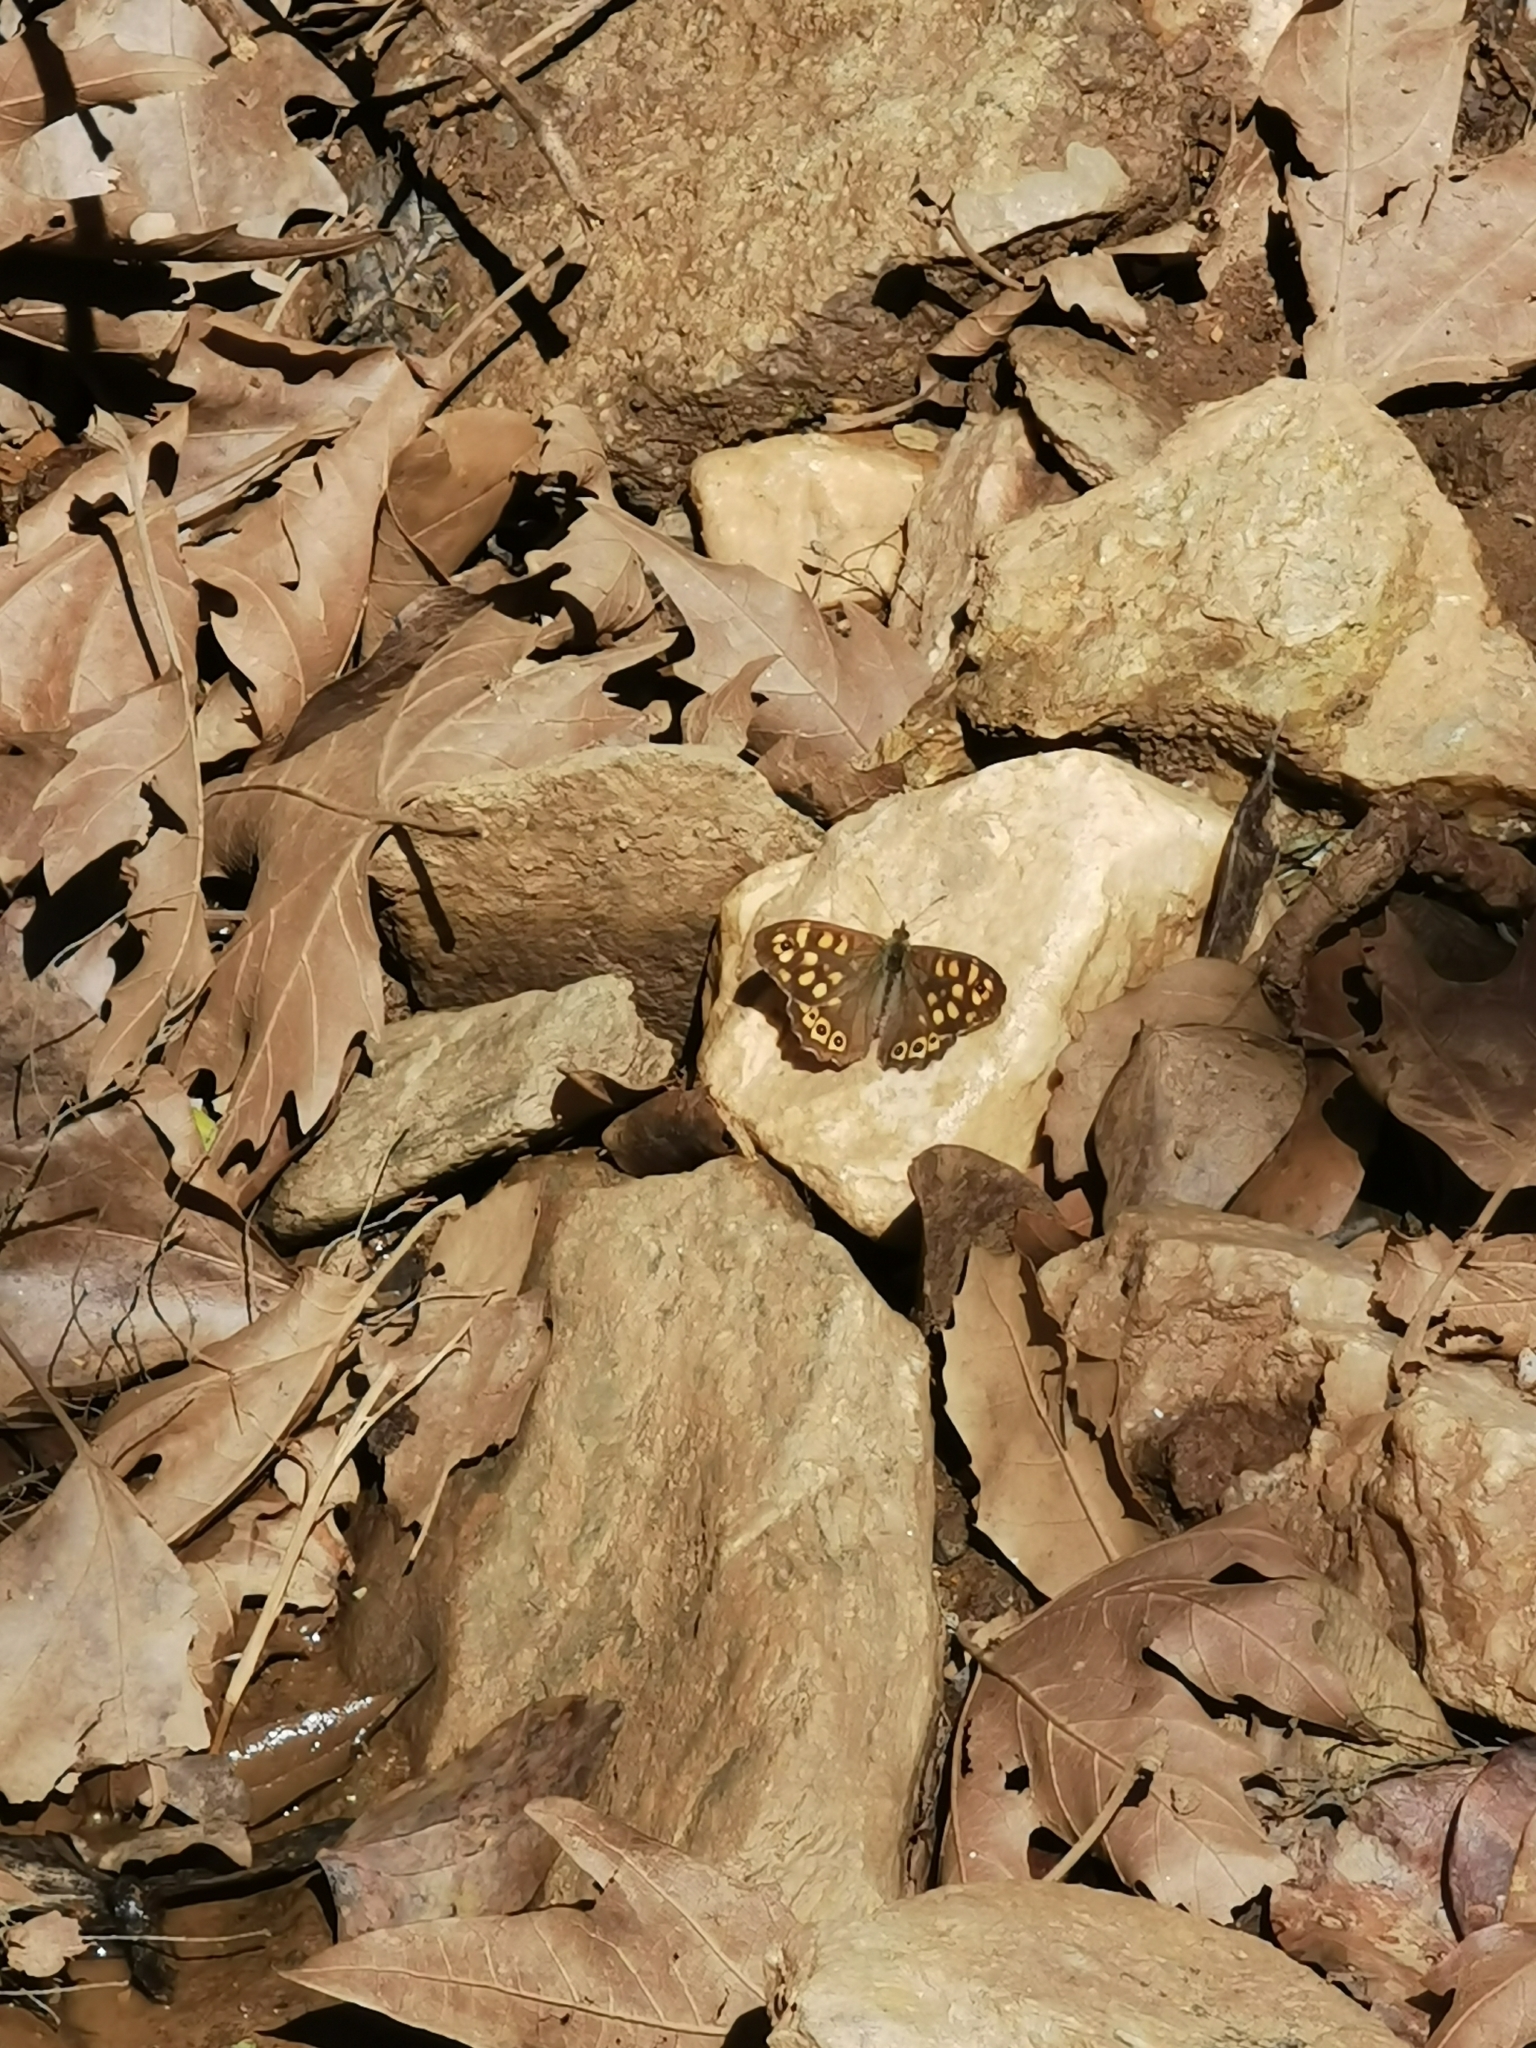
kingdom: Animalia
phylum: Arthropoda
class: Insecta
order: Lepidoptera
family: Nymphalidae
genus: Pararge
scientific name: Pararge aegeria
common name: Speckled wood
